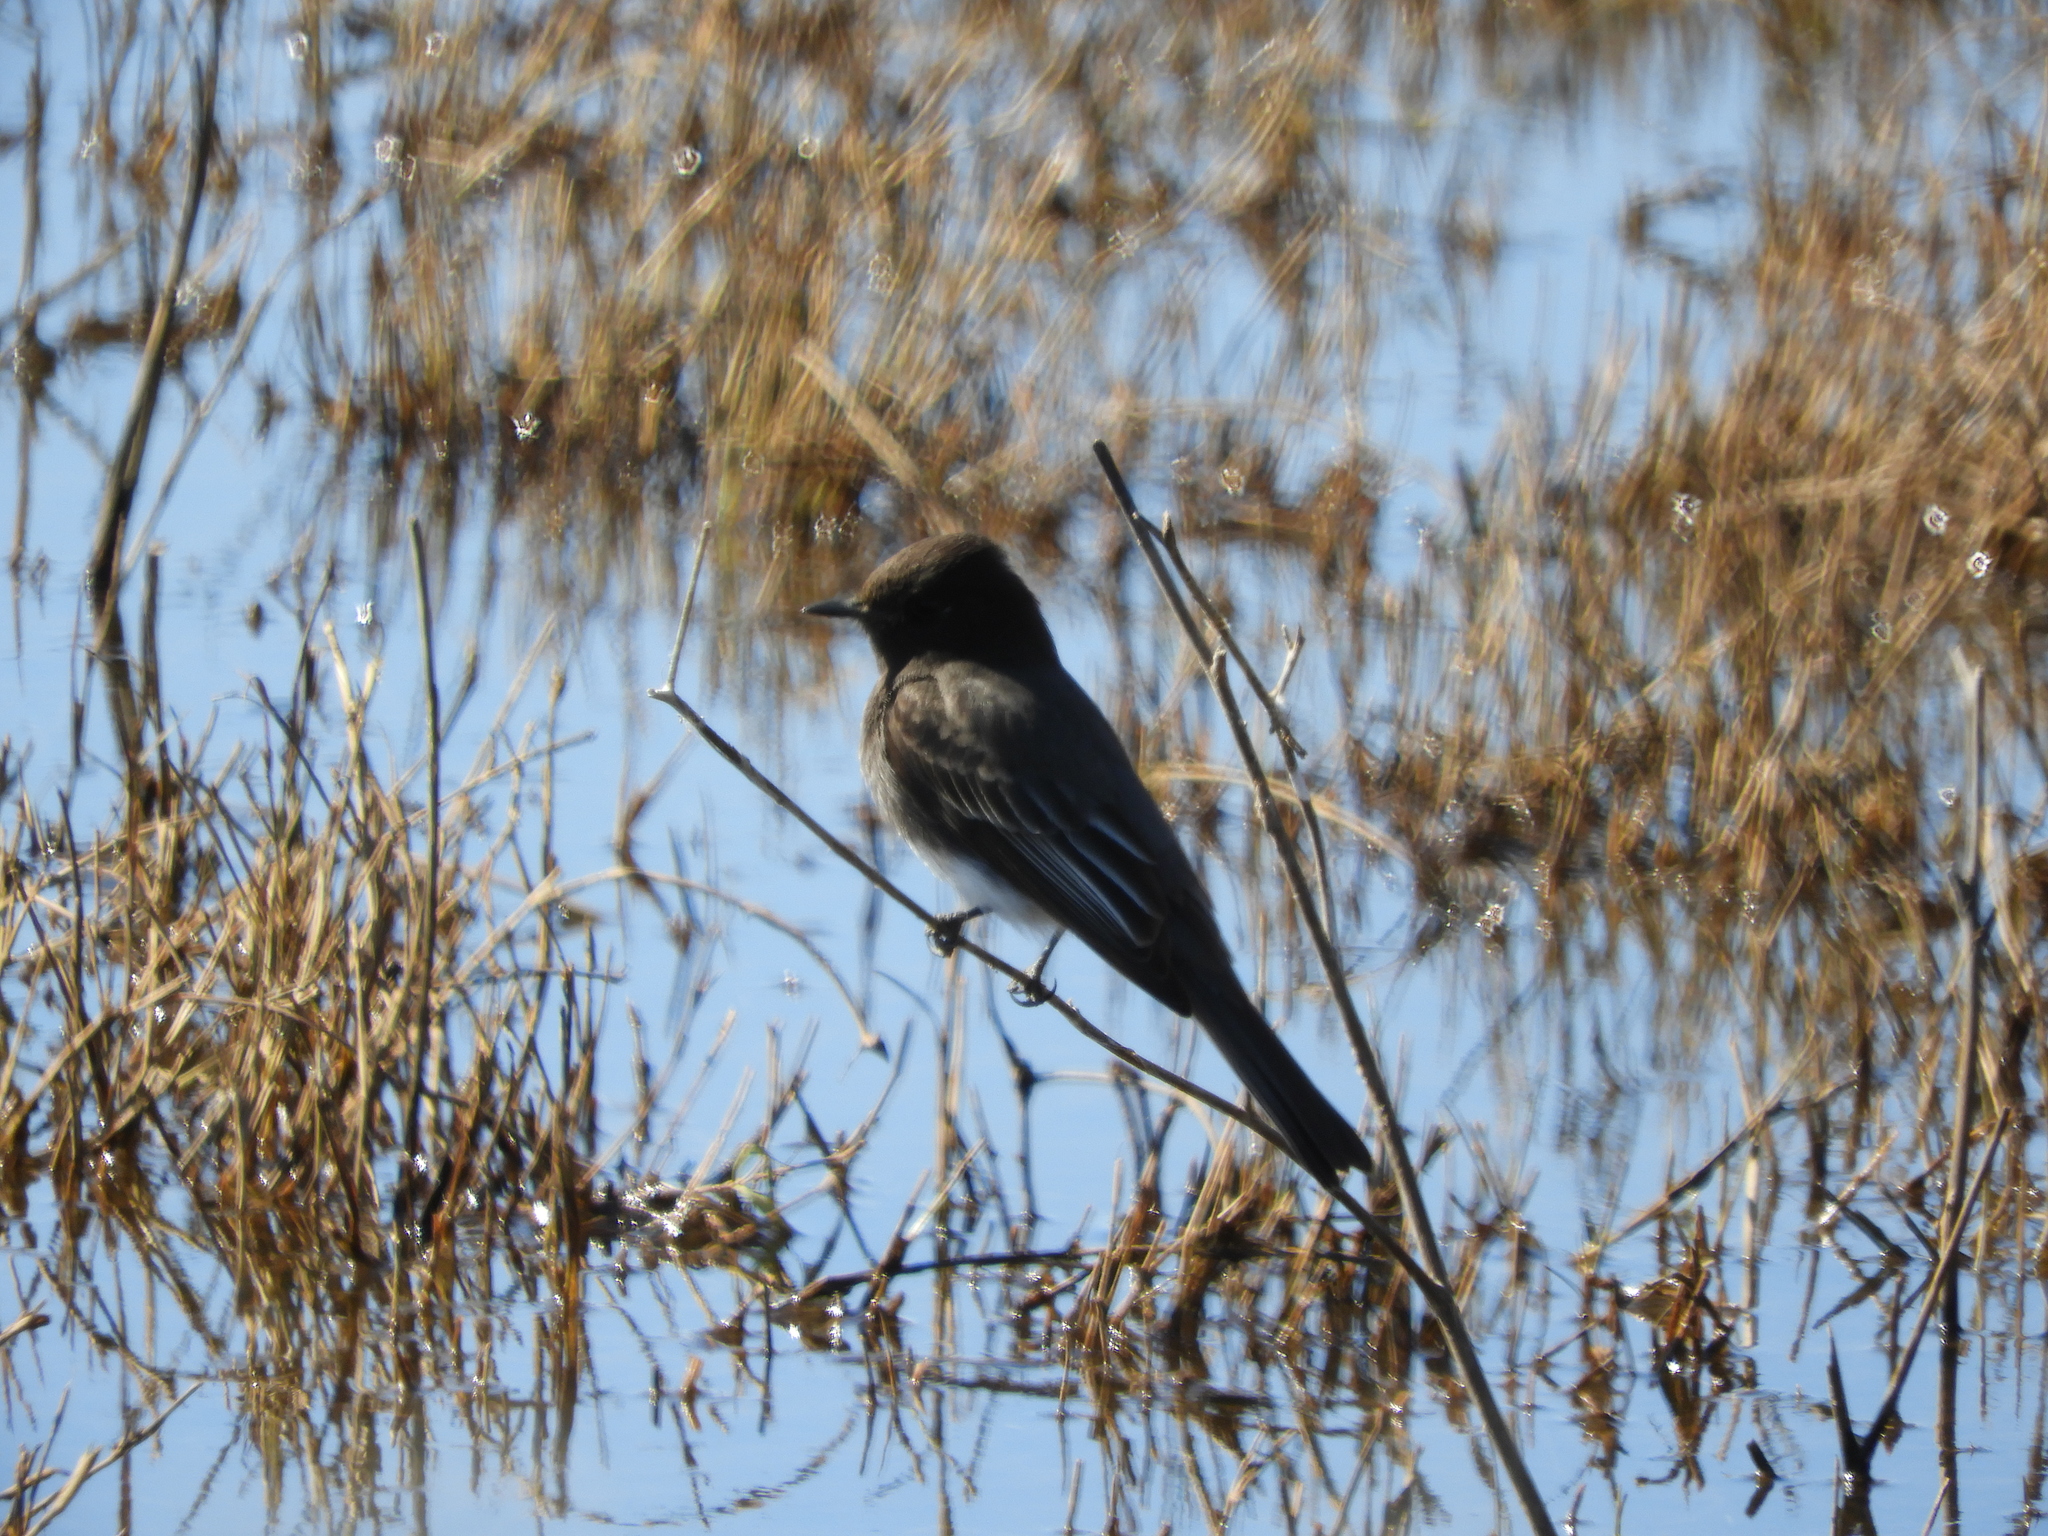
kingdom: Animalia
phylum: Chordata
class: Aves
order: Passeriformes
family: Tyrannidae
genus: Sayornis
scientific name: Sayornis nigricans
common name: Black phoebe
